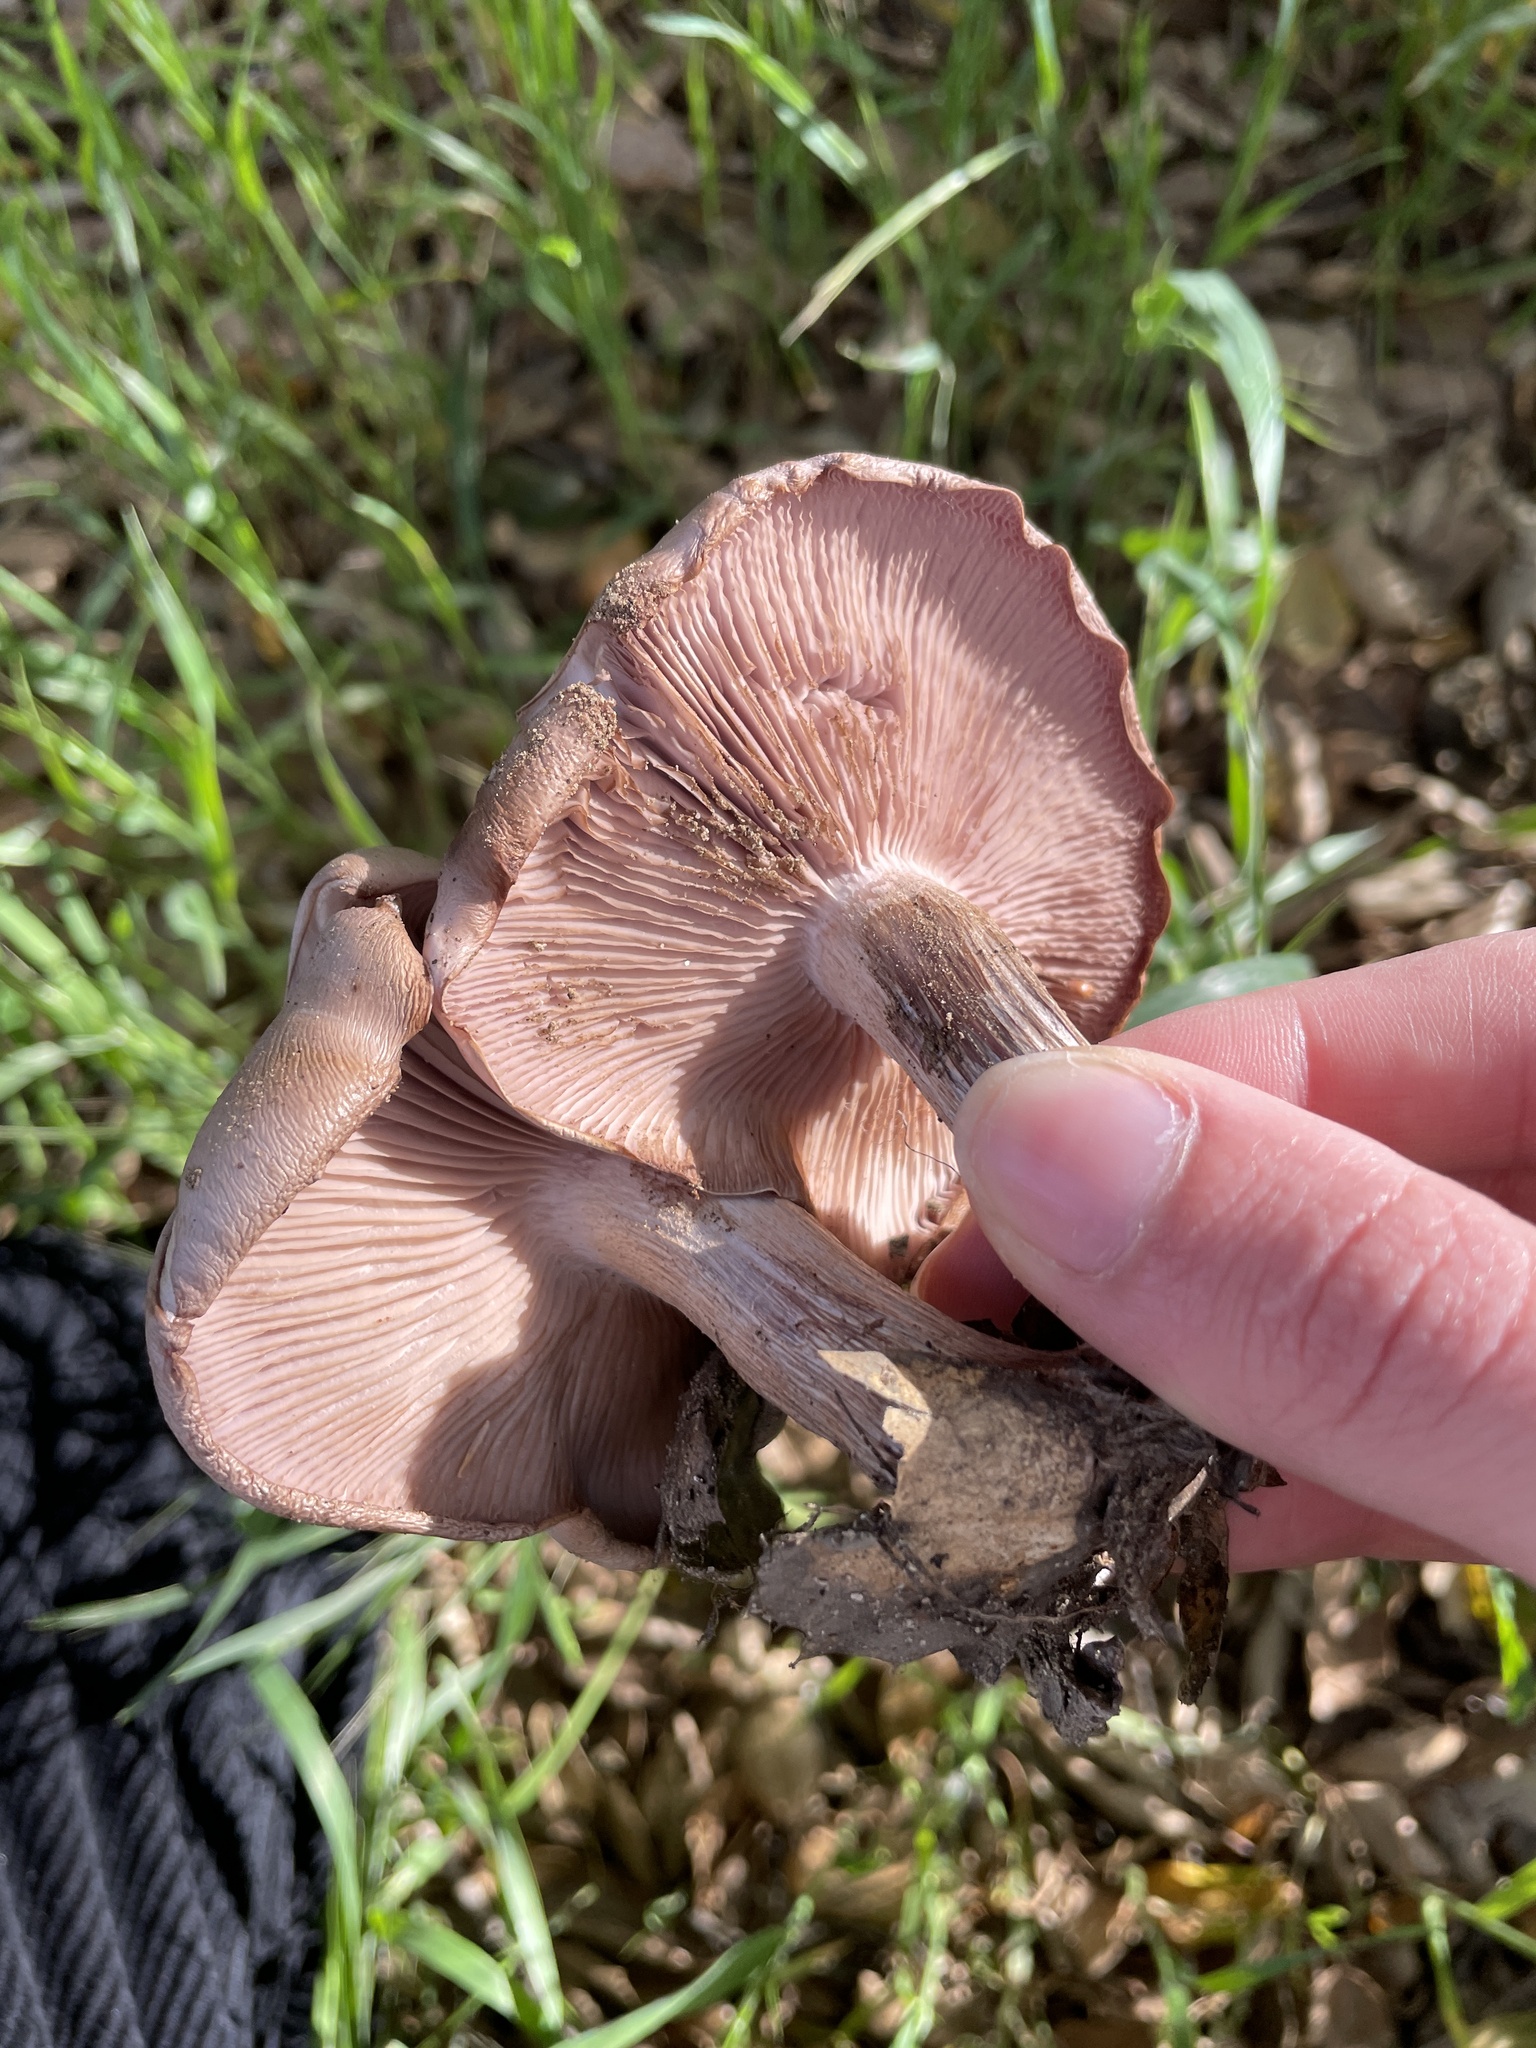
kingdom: Fungi
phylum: Basidiomycota
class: Agaricomycetes
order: Agaricales
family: Tricholomataceae
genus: Collybia
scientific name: Collybia
